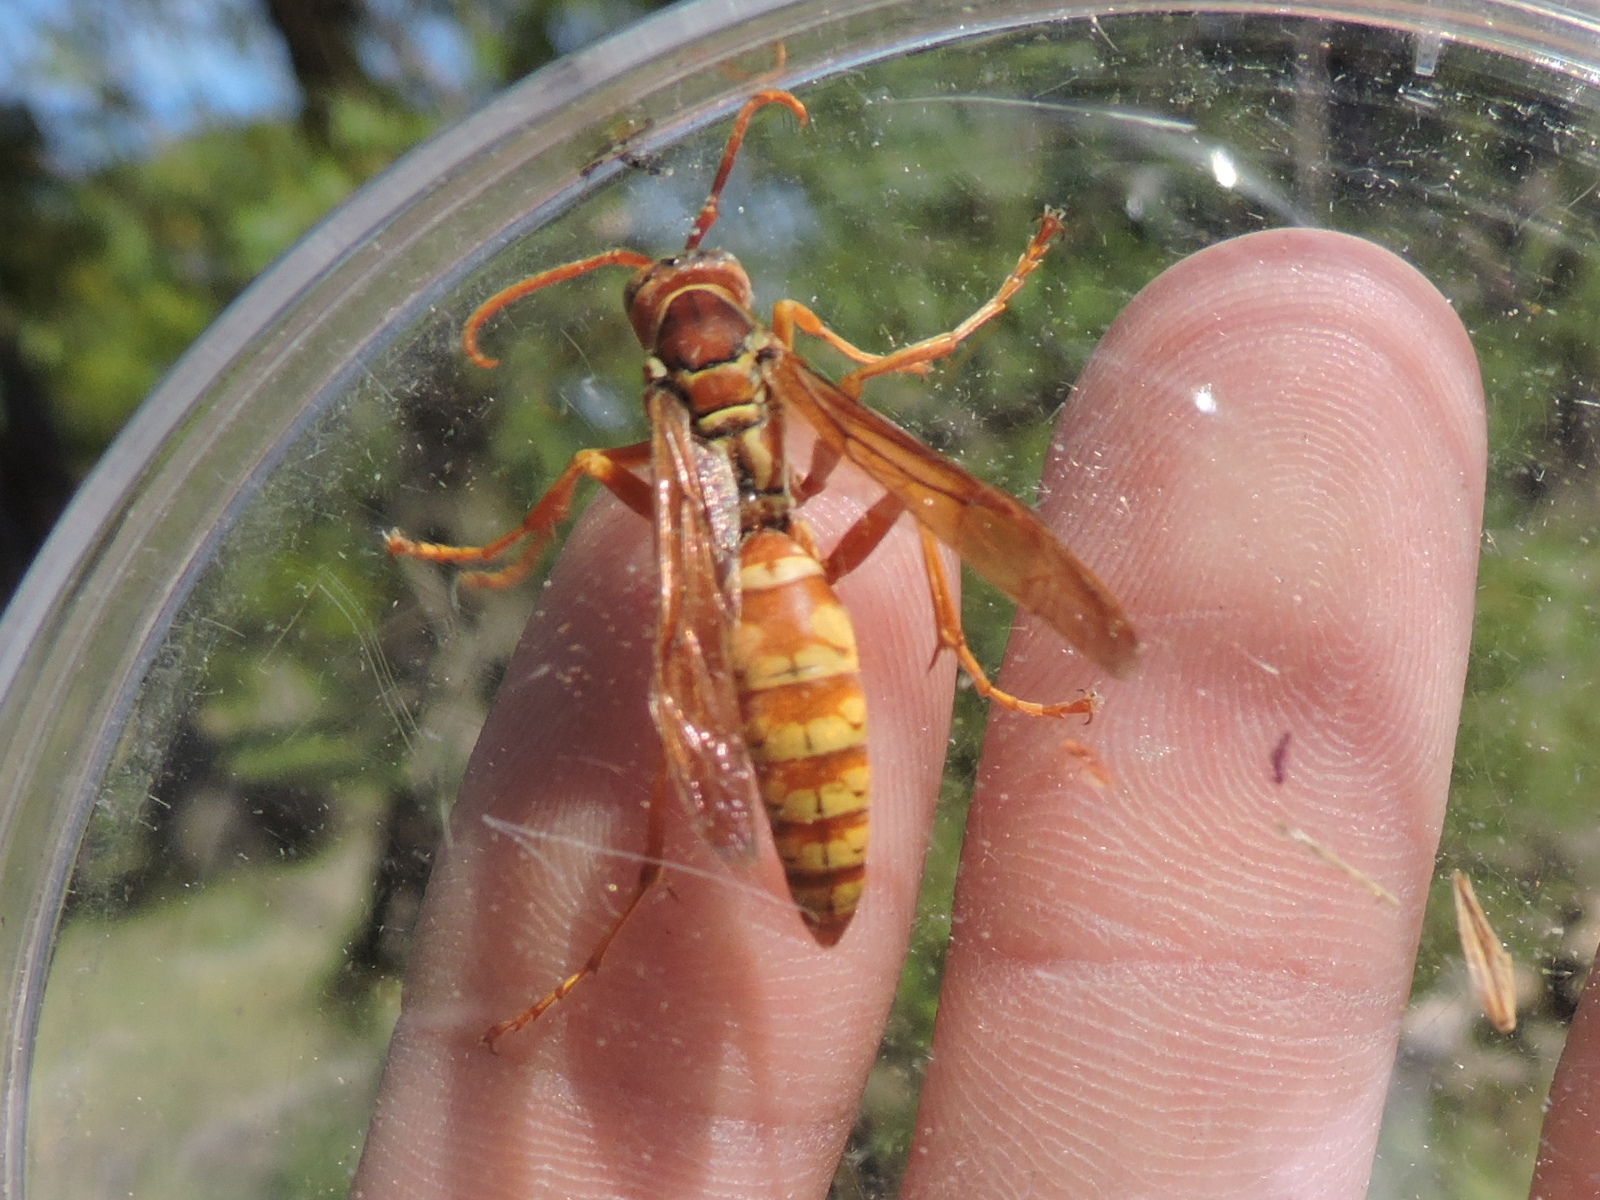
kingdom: Animalia
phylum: Arthropoda
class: Insecta
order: Hymenoptera
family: Eumenidae
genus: Polistes
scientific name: Polistes apachus
